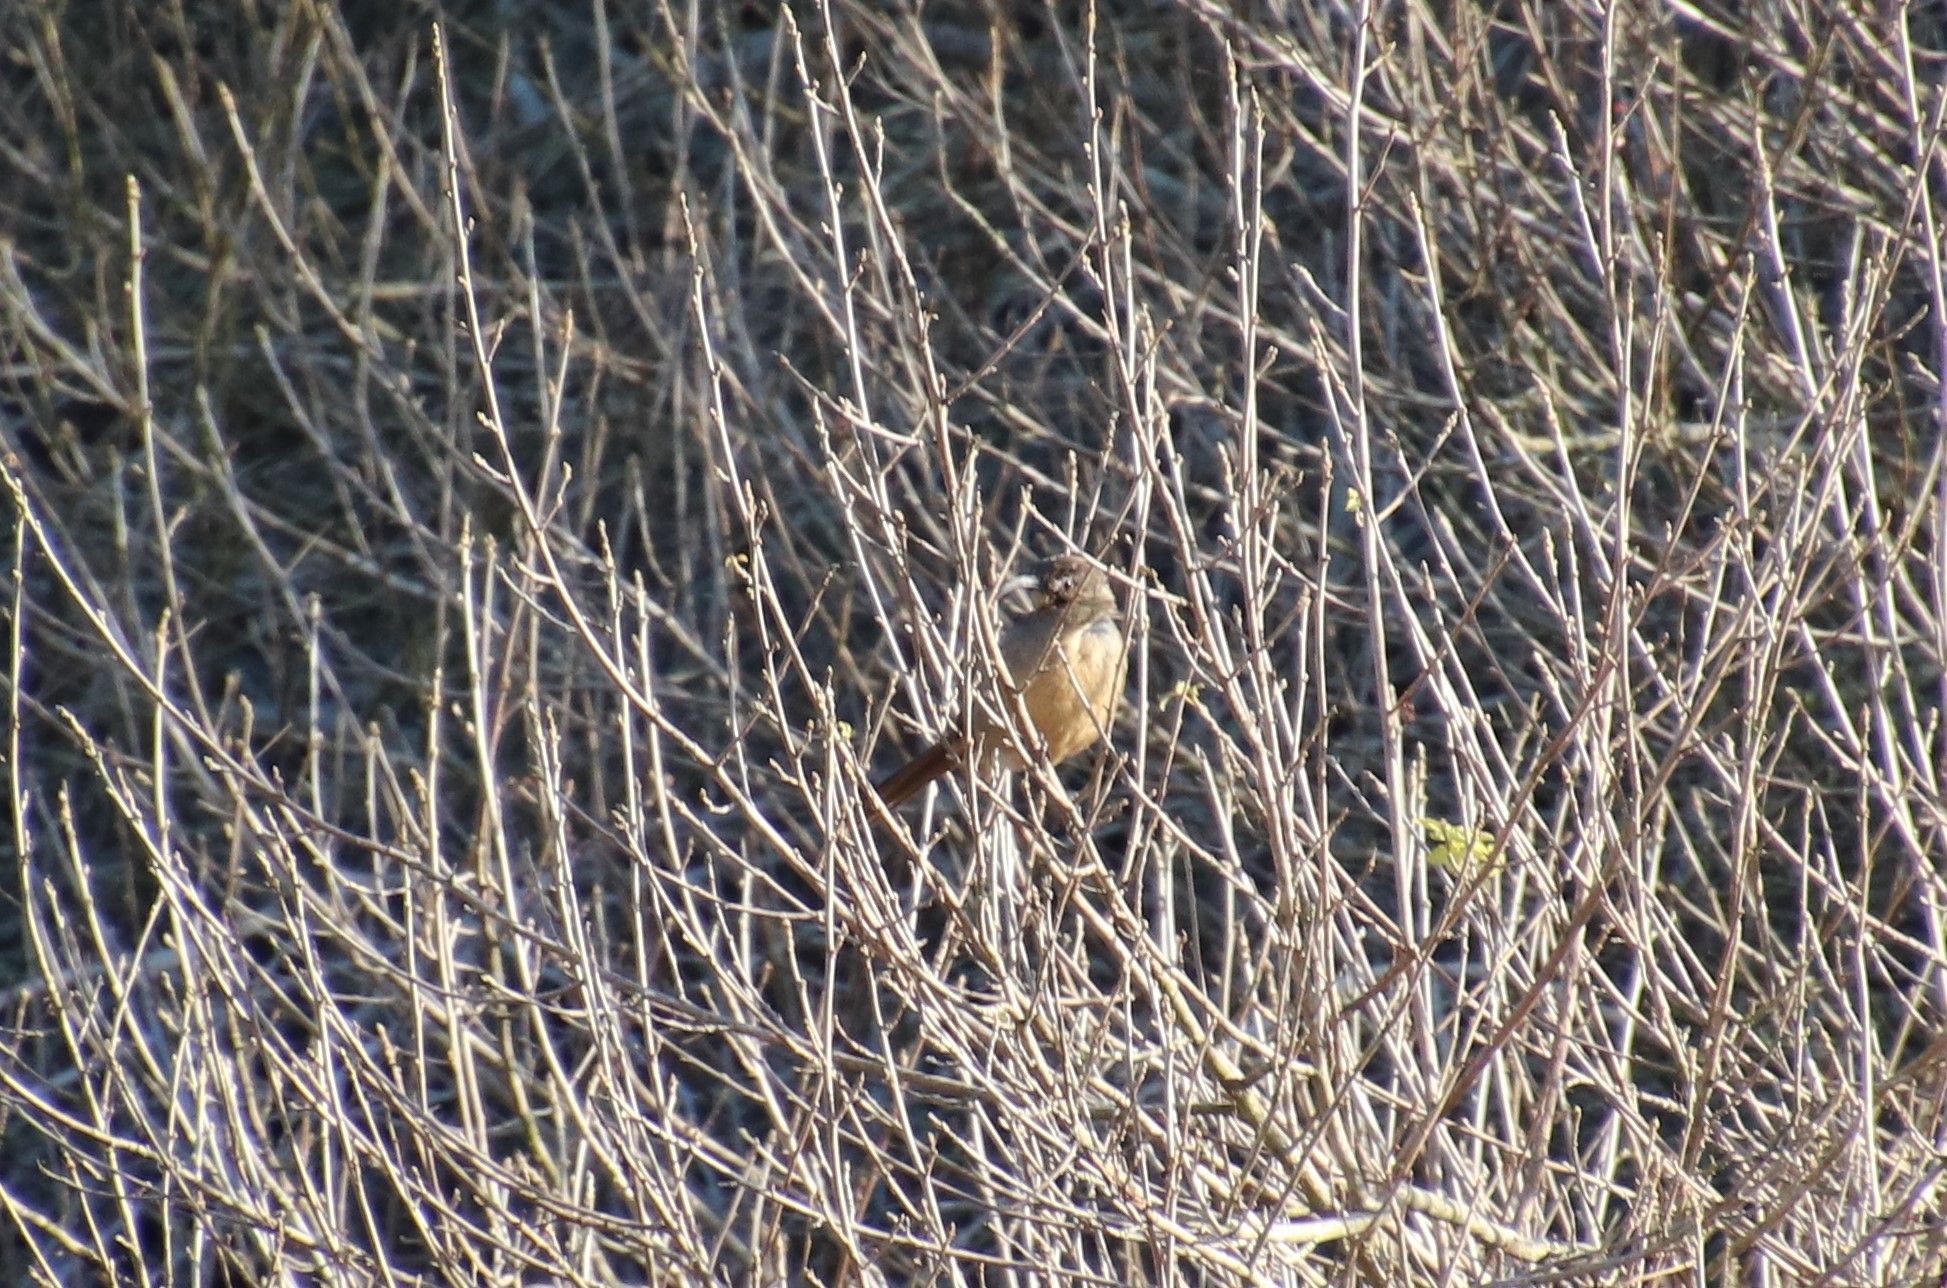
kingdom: Animalia
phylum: Chordata
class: Aves
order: Passeriformes
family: Mimidae
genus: Toxostoma
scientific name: Toxostoma redivivum
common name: California thrasher
